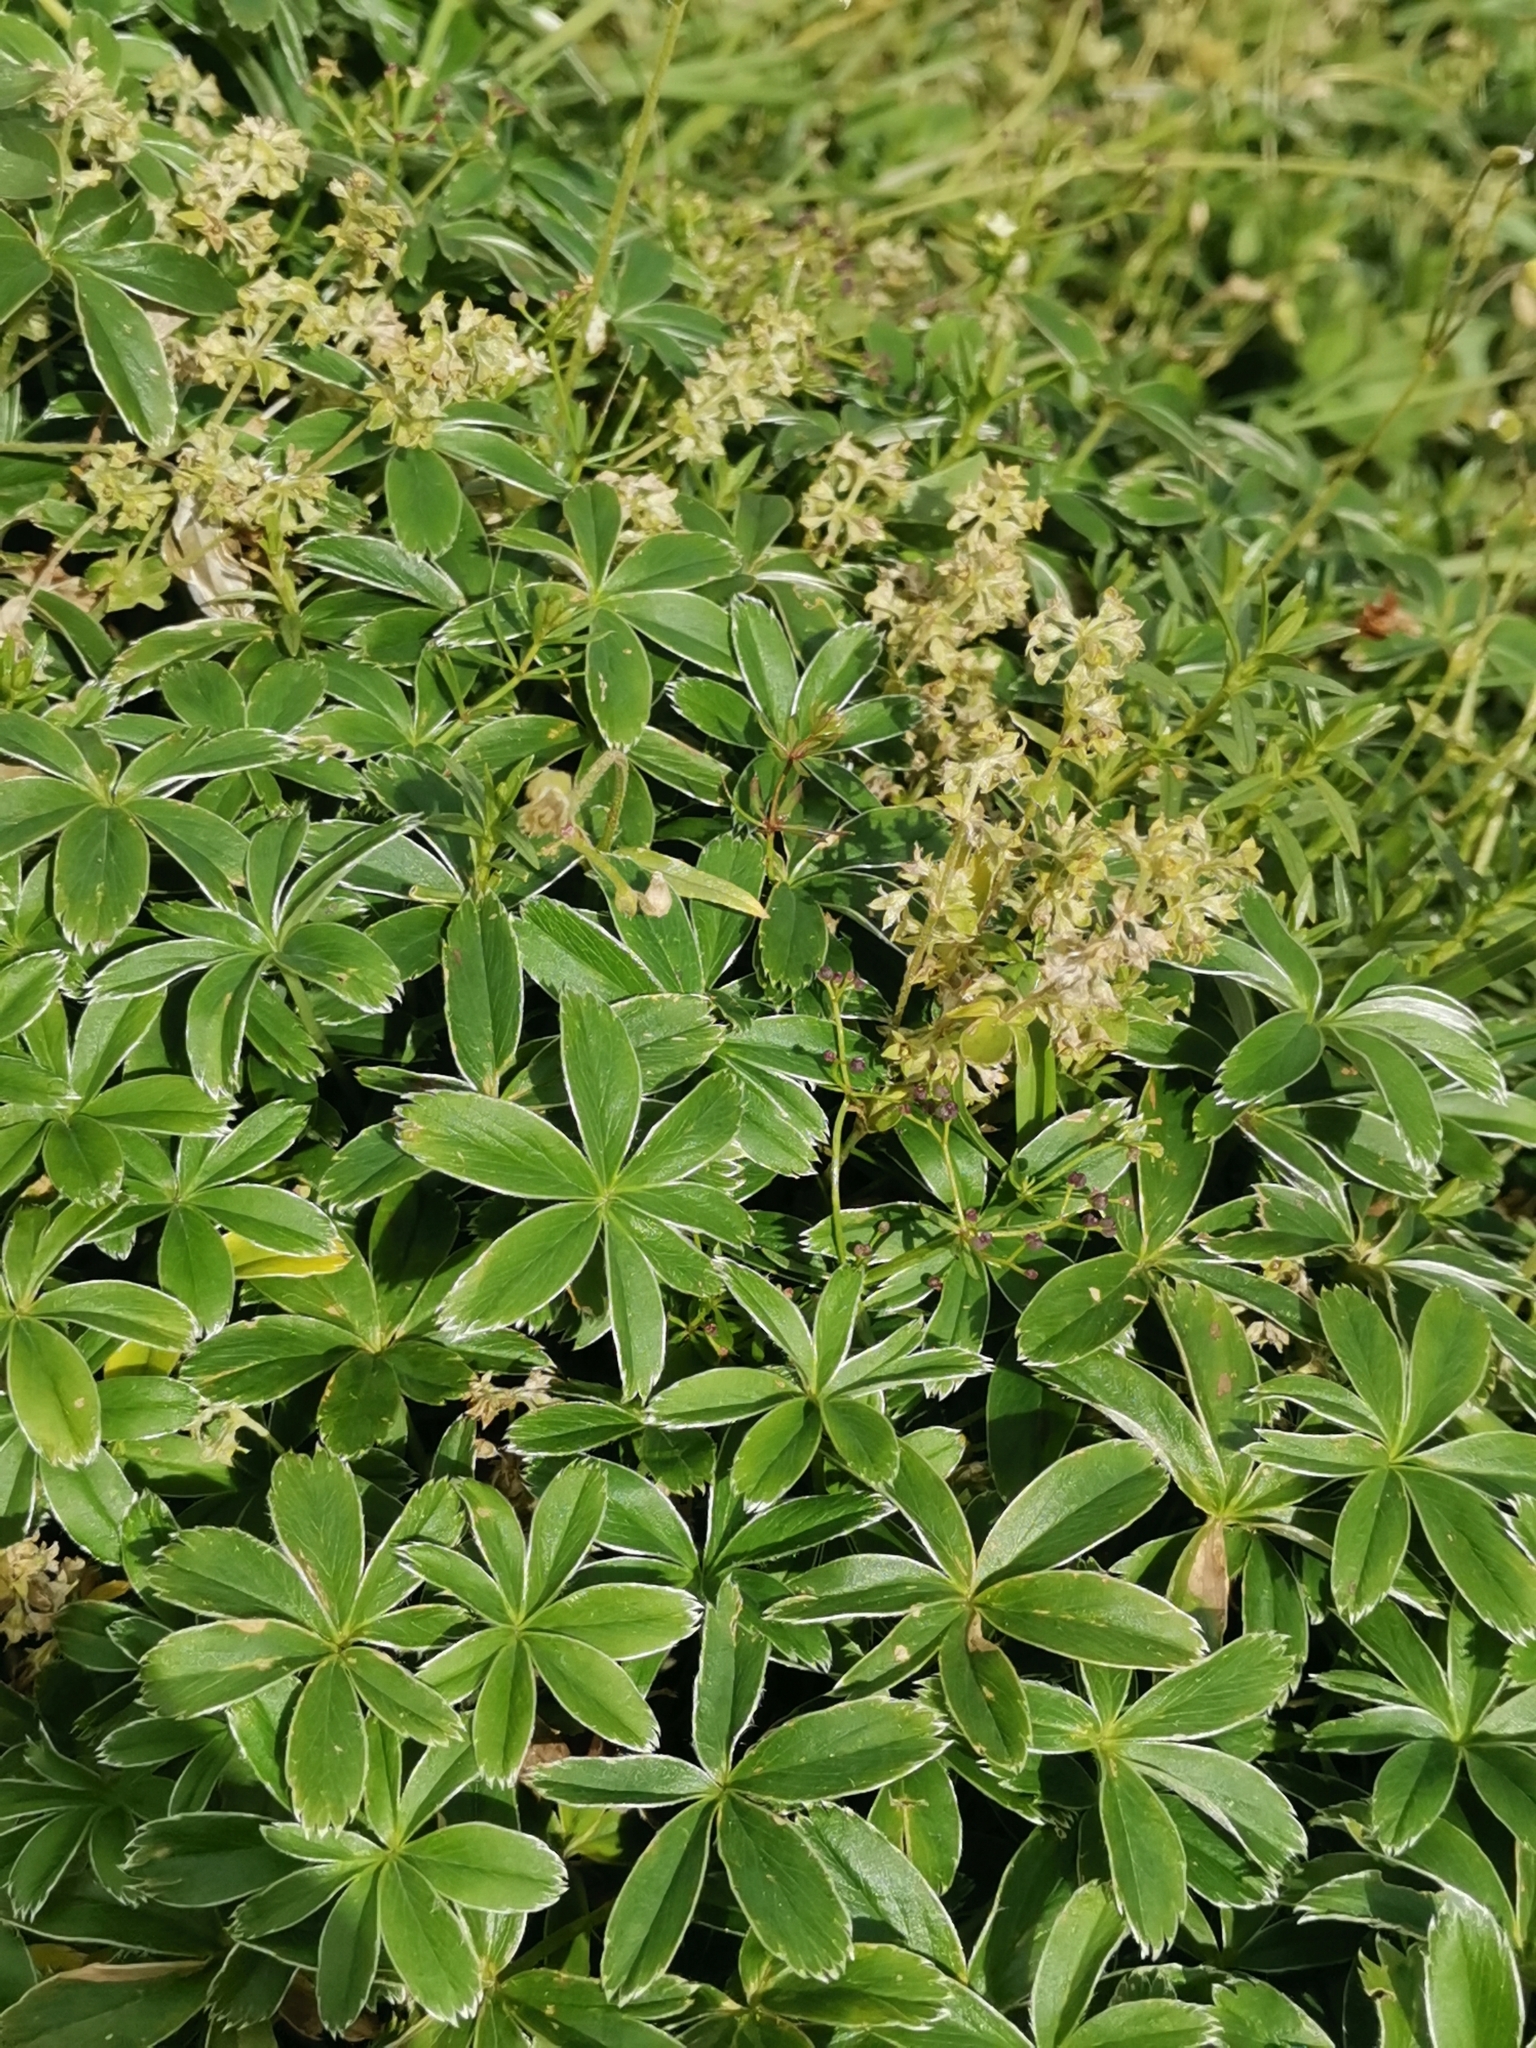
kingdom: Plantae
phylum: Tracheophyta
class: Magnoliopsida
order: Rosales
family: Rosaceae
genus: Alchemilla
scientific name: Alchemilla velebitica
